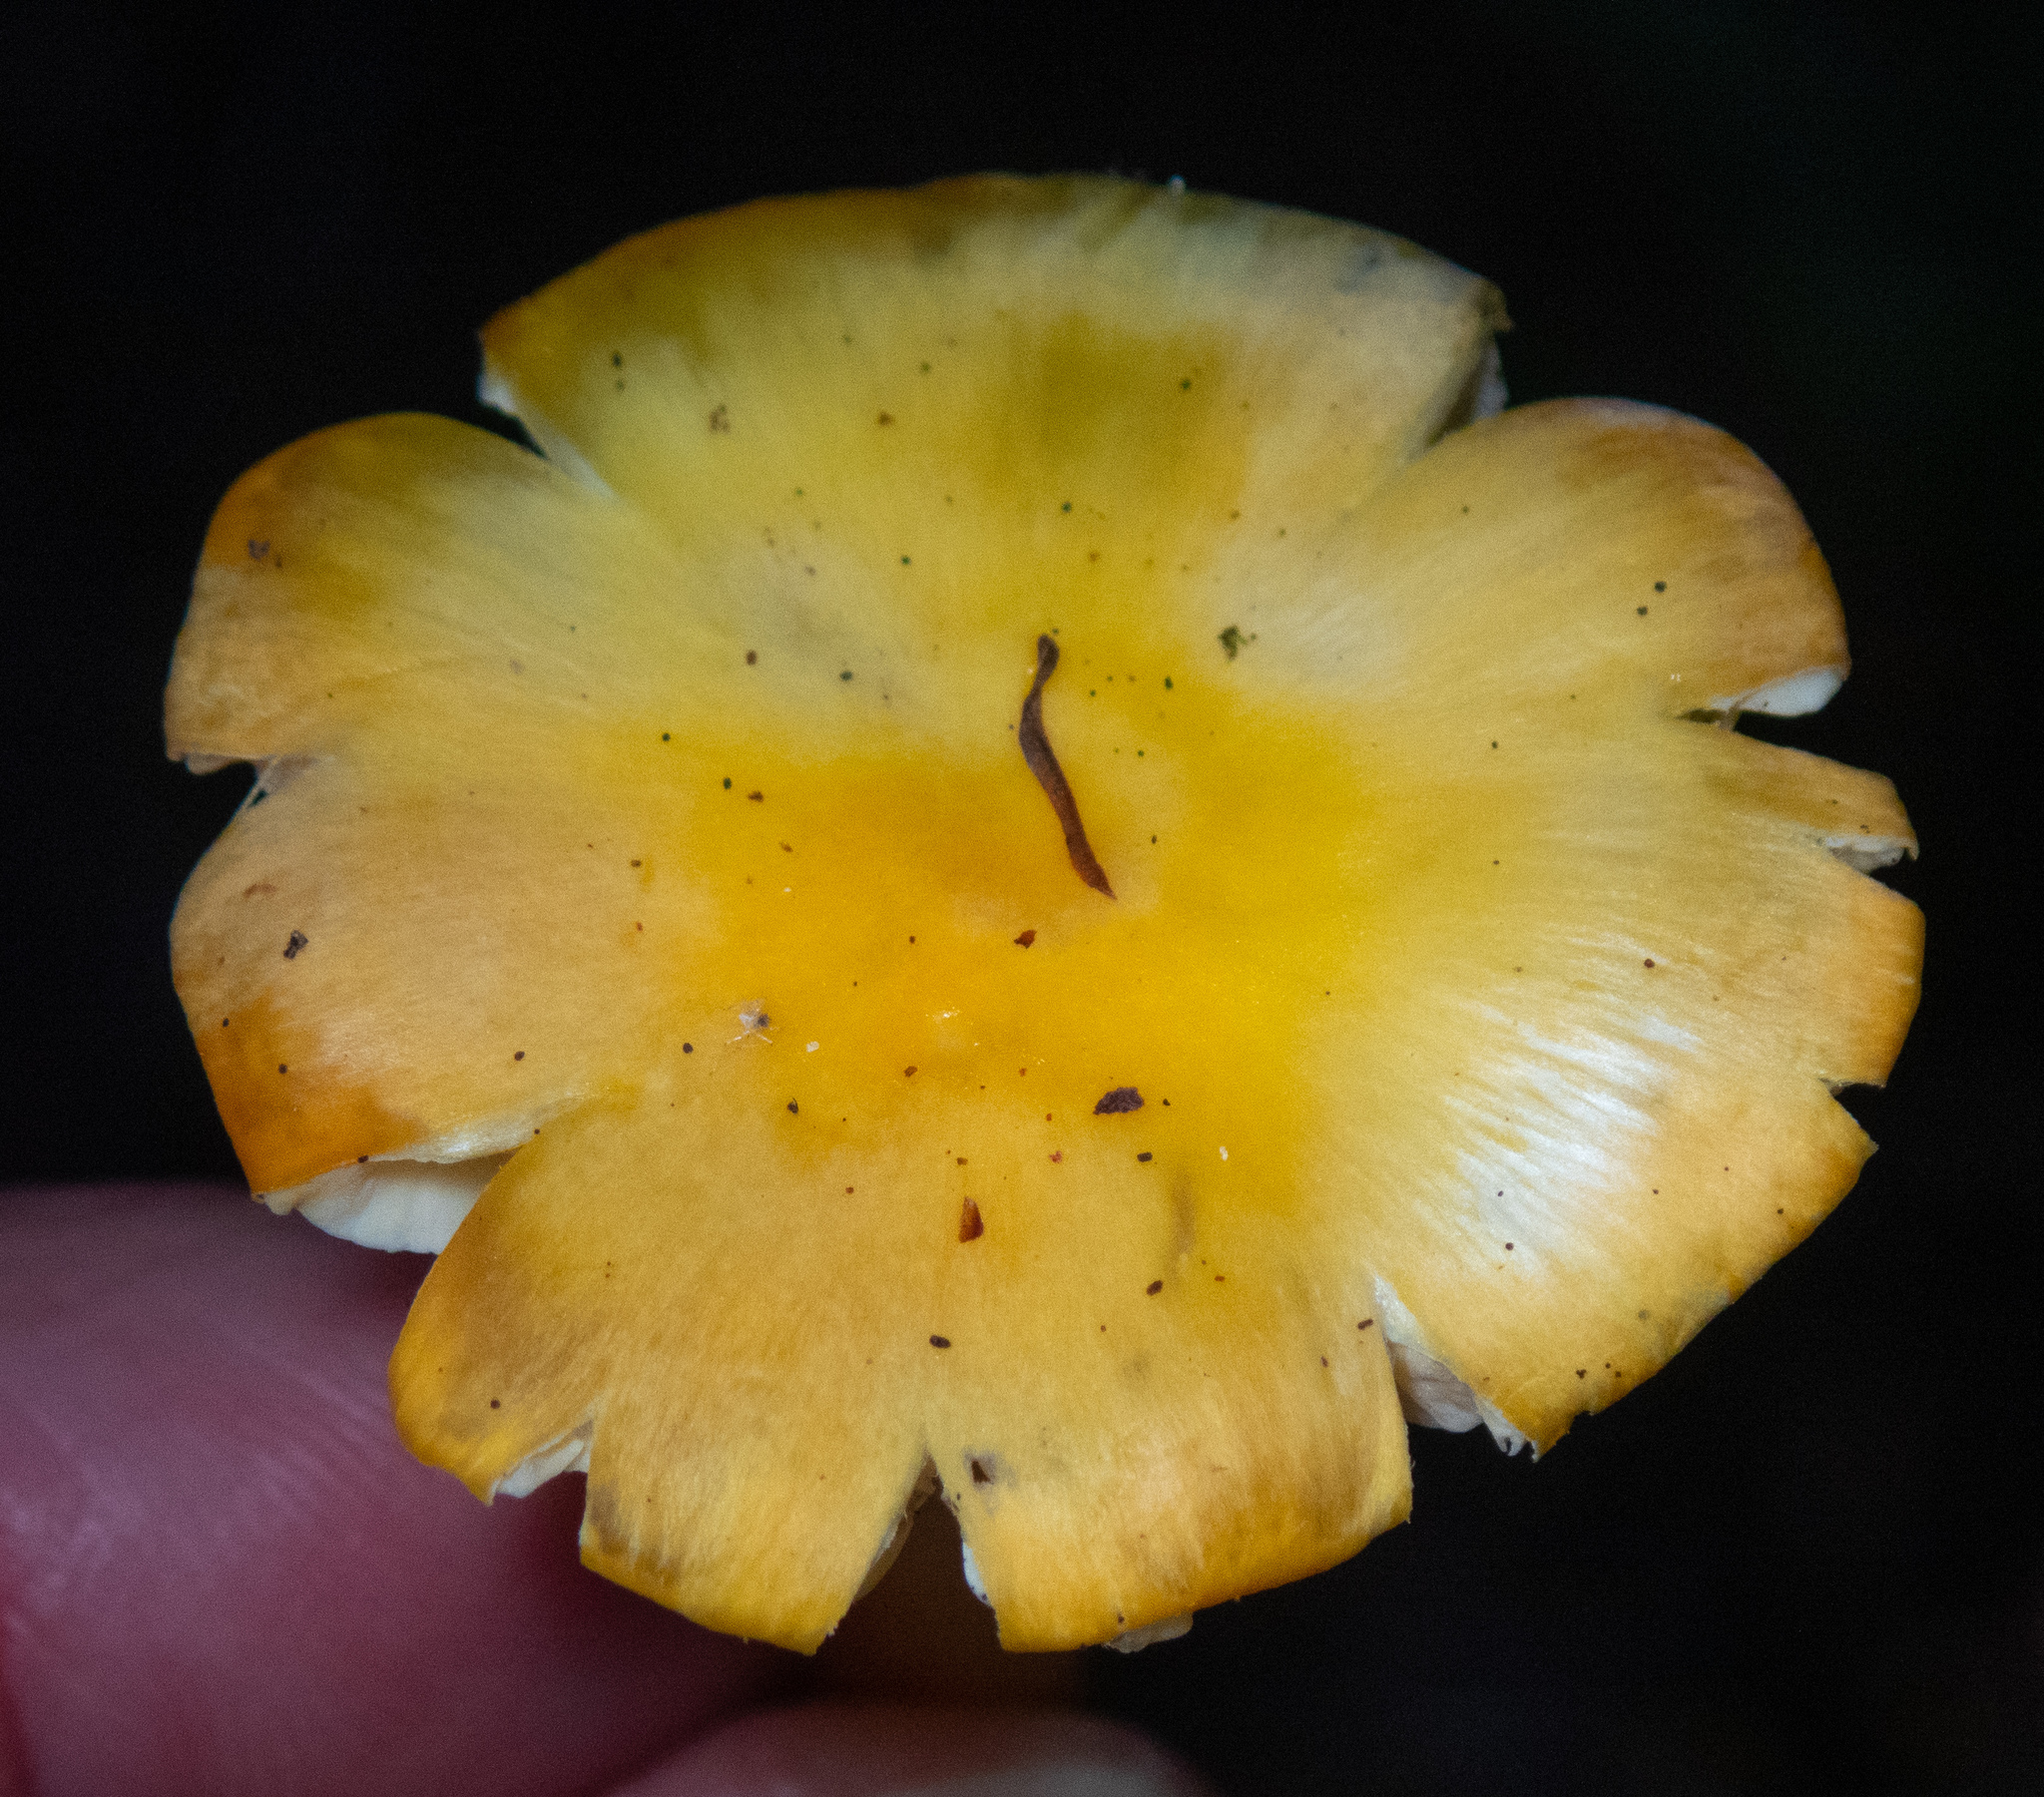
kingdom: Fungi
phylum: Basidiomycota
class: Agaricomycetes
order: Agaricales
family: Hygrophoraceae
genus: Hygrocybe
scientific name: Hygrocybe flavescens
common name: Golden waxy cap
